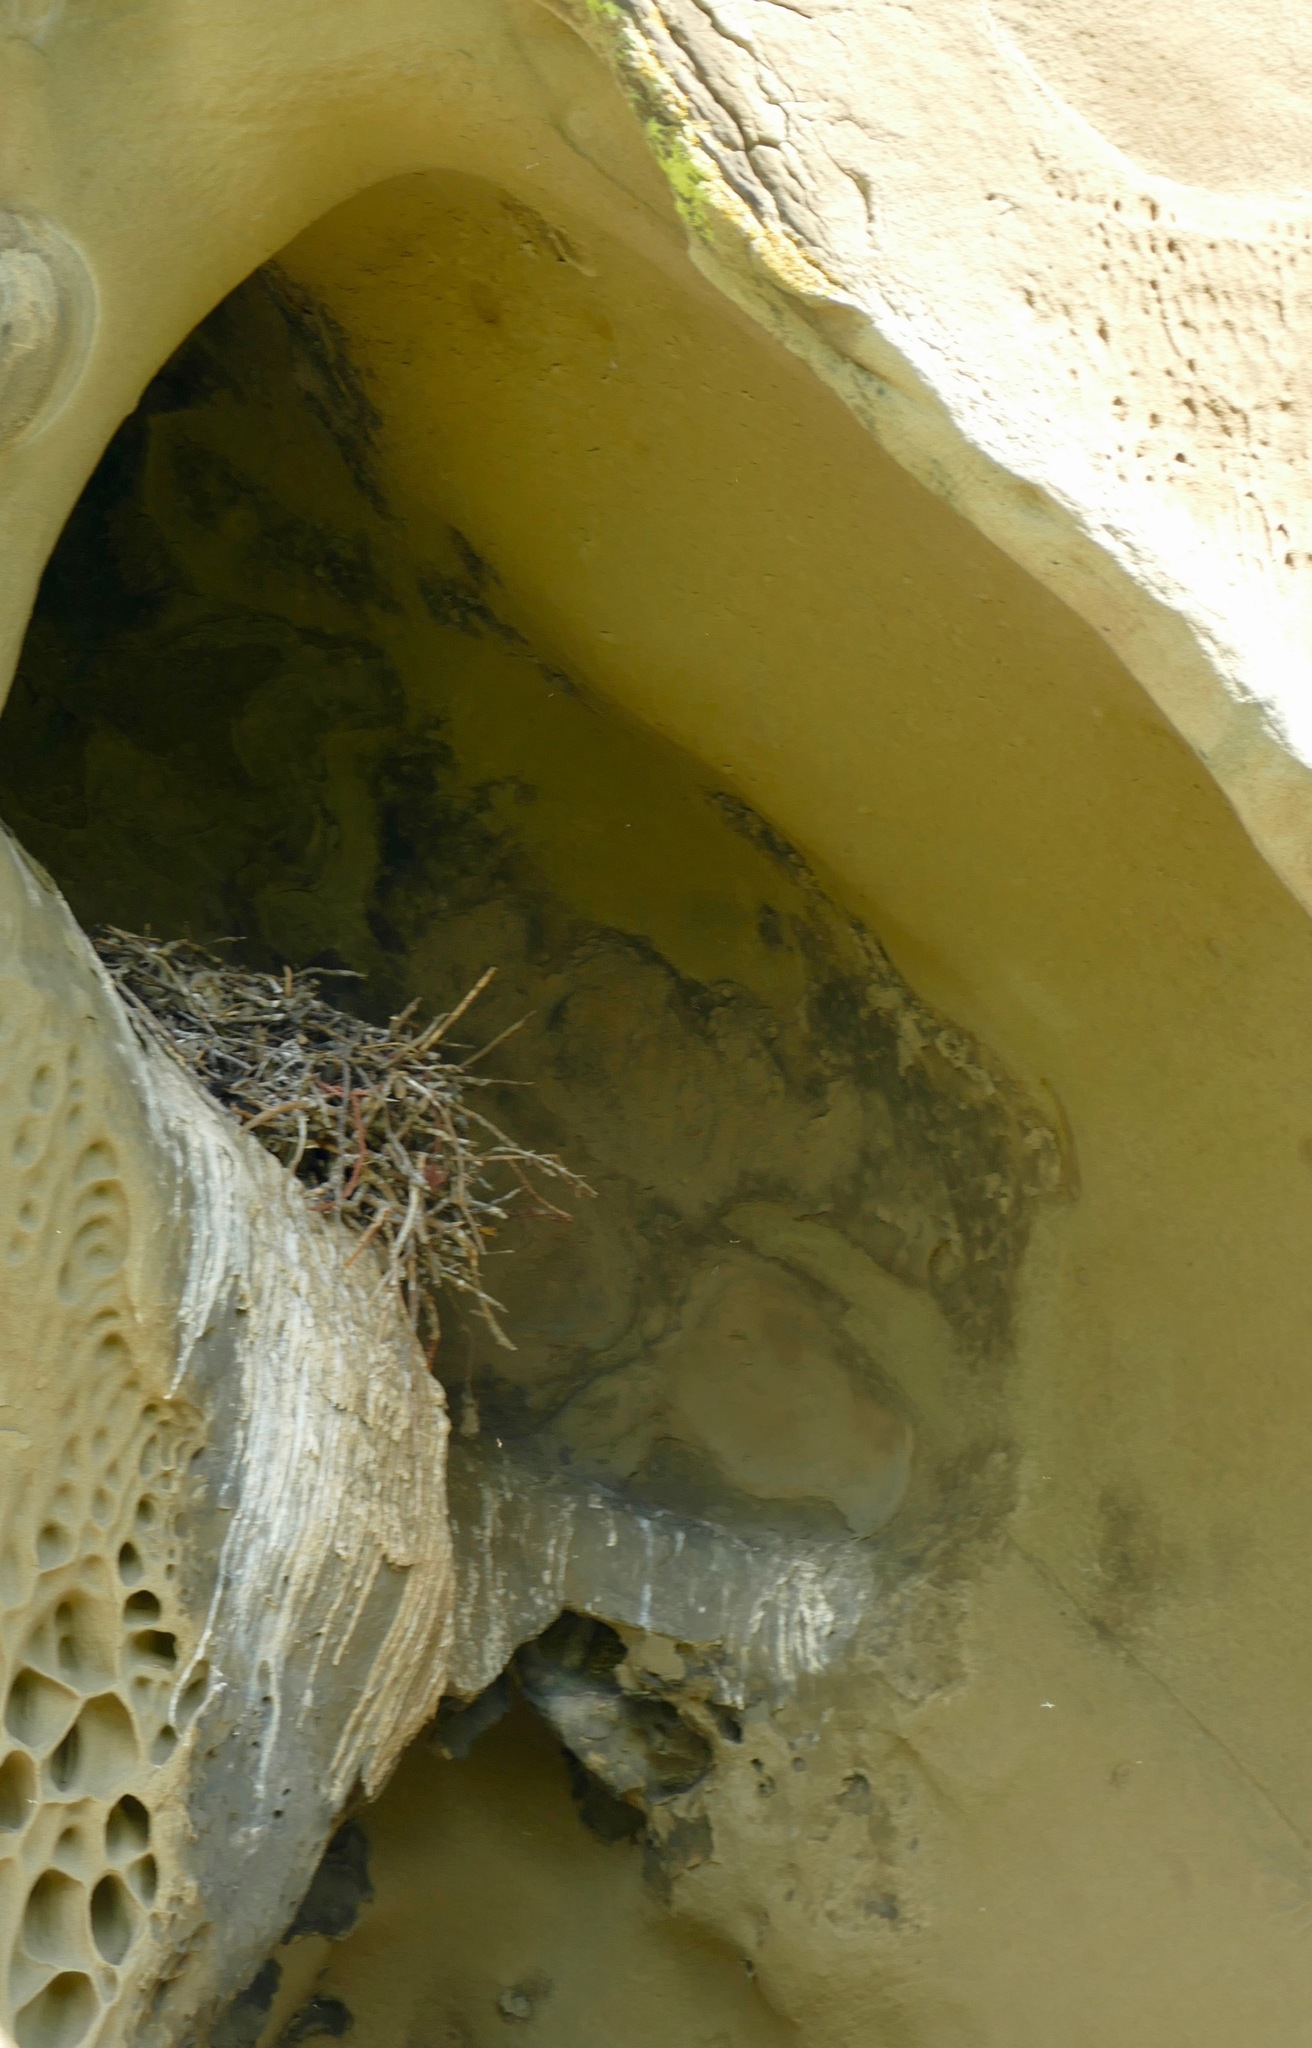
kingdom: Animalia
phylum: Chordata
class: Aves
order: Passeriformes
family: Corvidae
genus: Corvus
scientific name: Corvus corax
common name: Common raven
